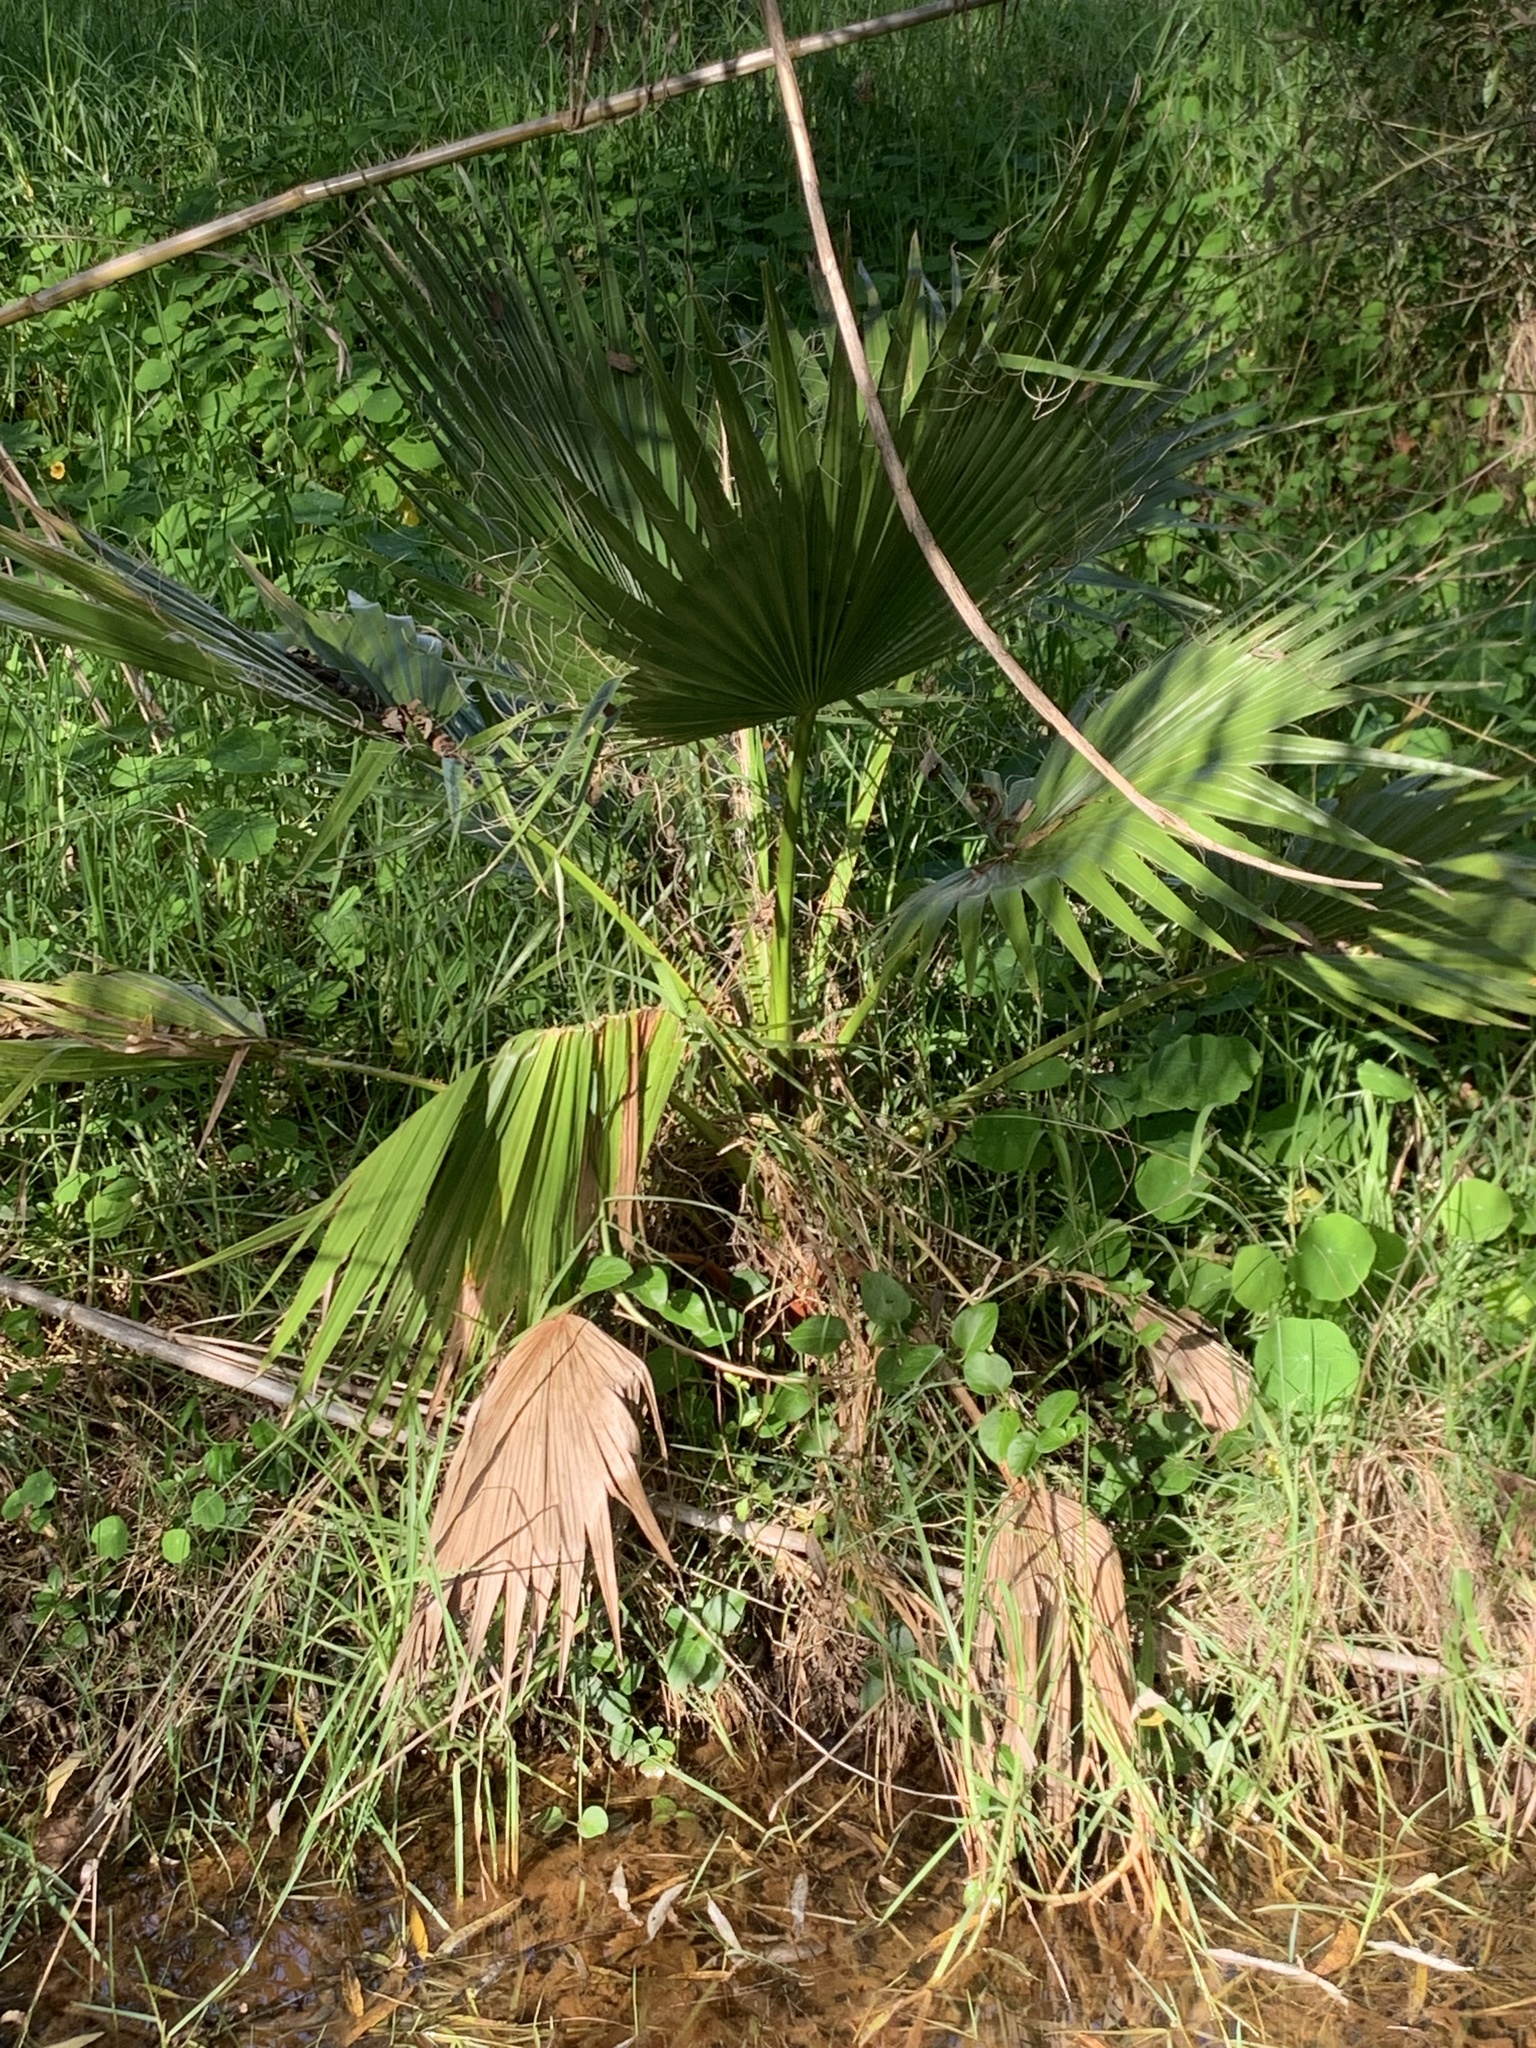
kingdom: Plantae
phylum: Tracheophyta
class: Liliopsida
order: Arecales
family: Arecaceae
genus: Washingtonia
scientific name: Washingtonia robusta
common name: Mexican fan palm
